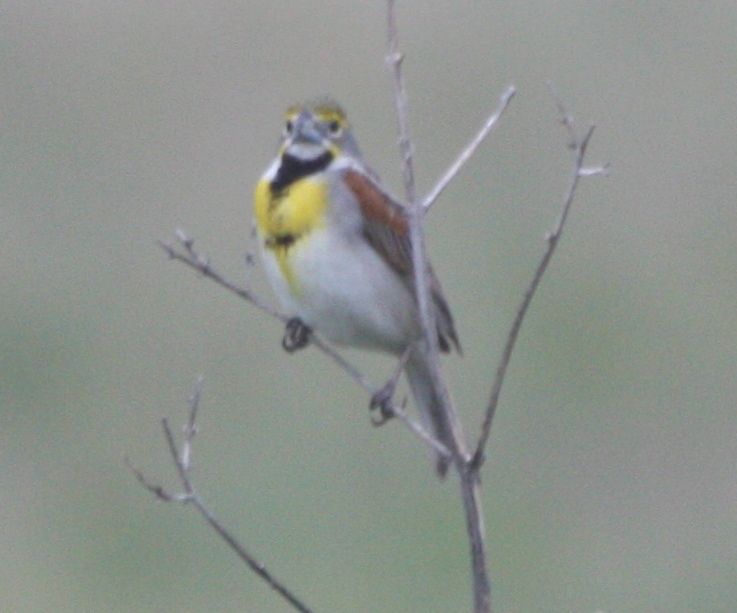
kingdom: Animalia
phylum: Chordata
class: Aves
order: Passeriformes
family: Cardinalidae
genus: Spiza
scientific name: Spiza americana
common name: Dickcissel
